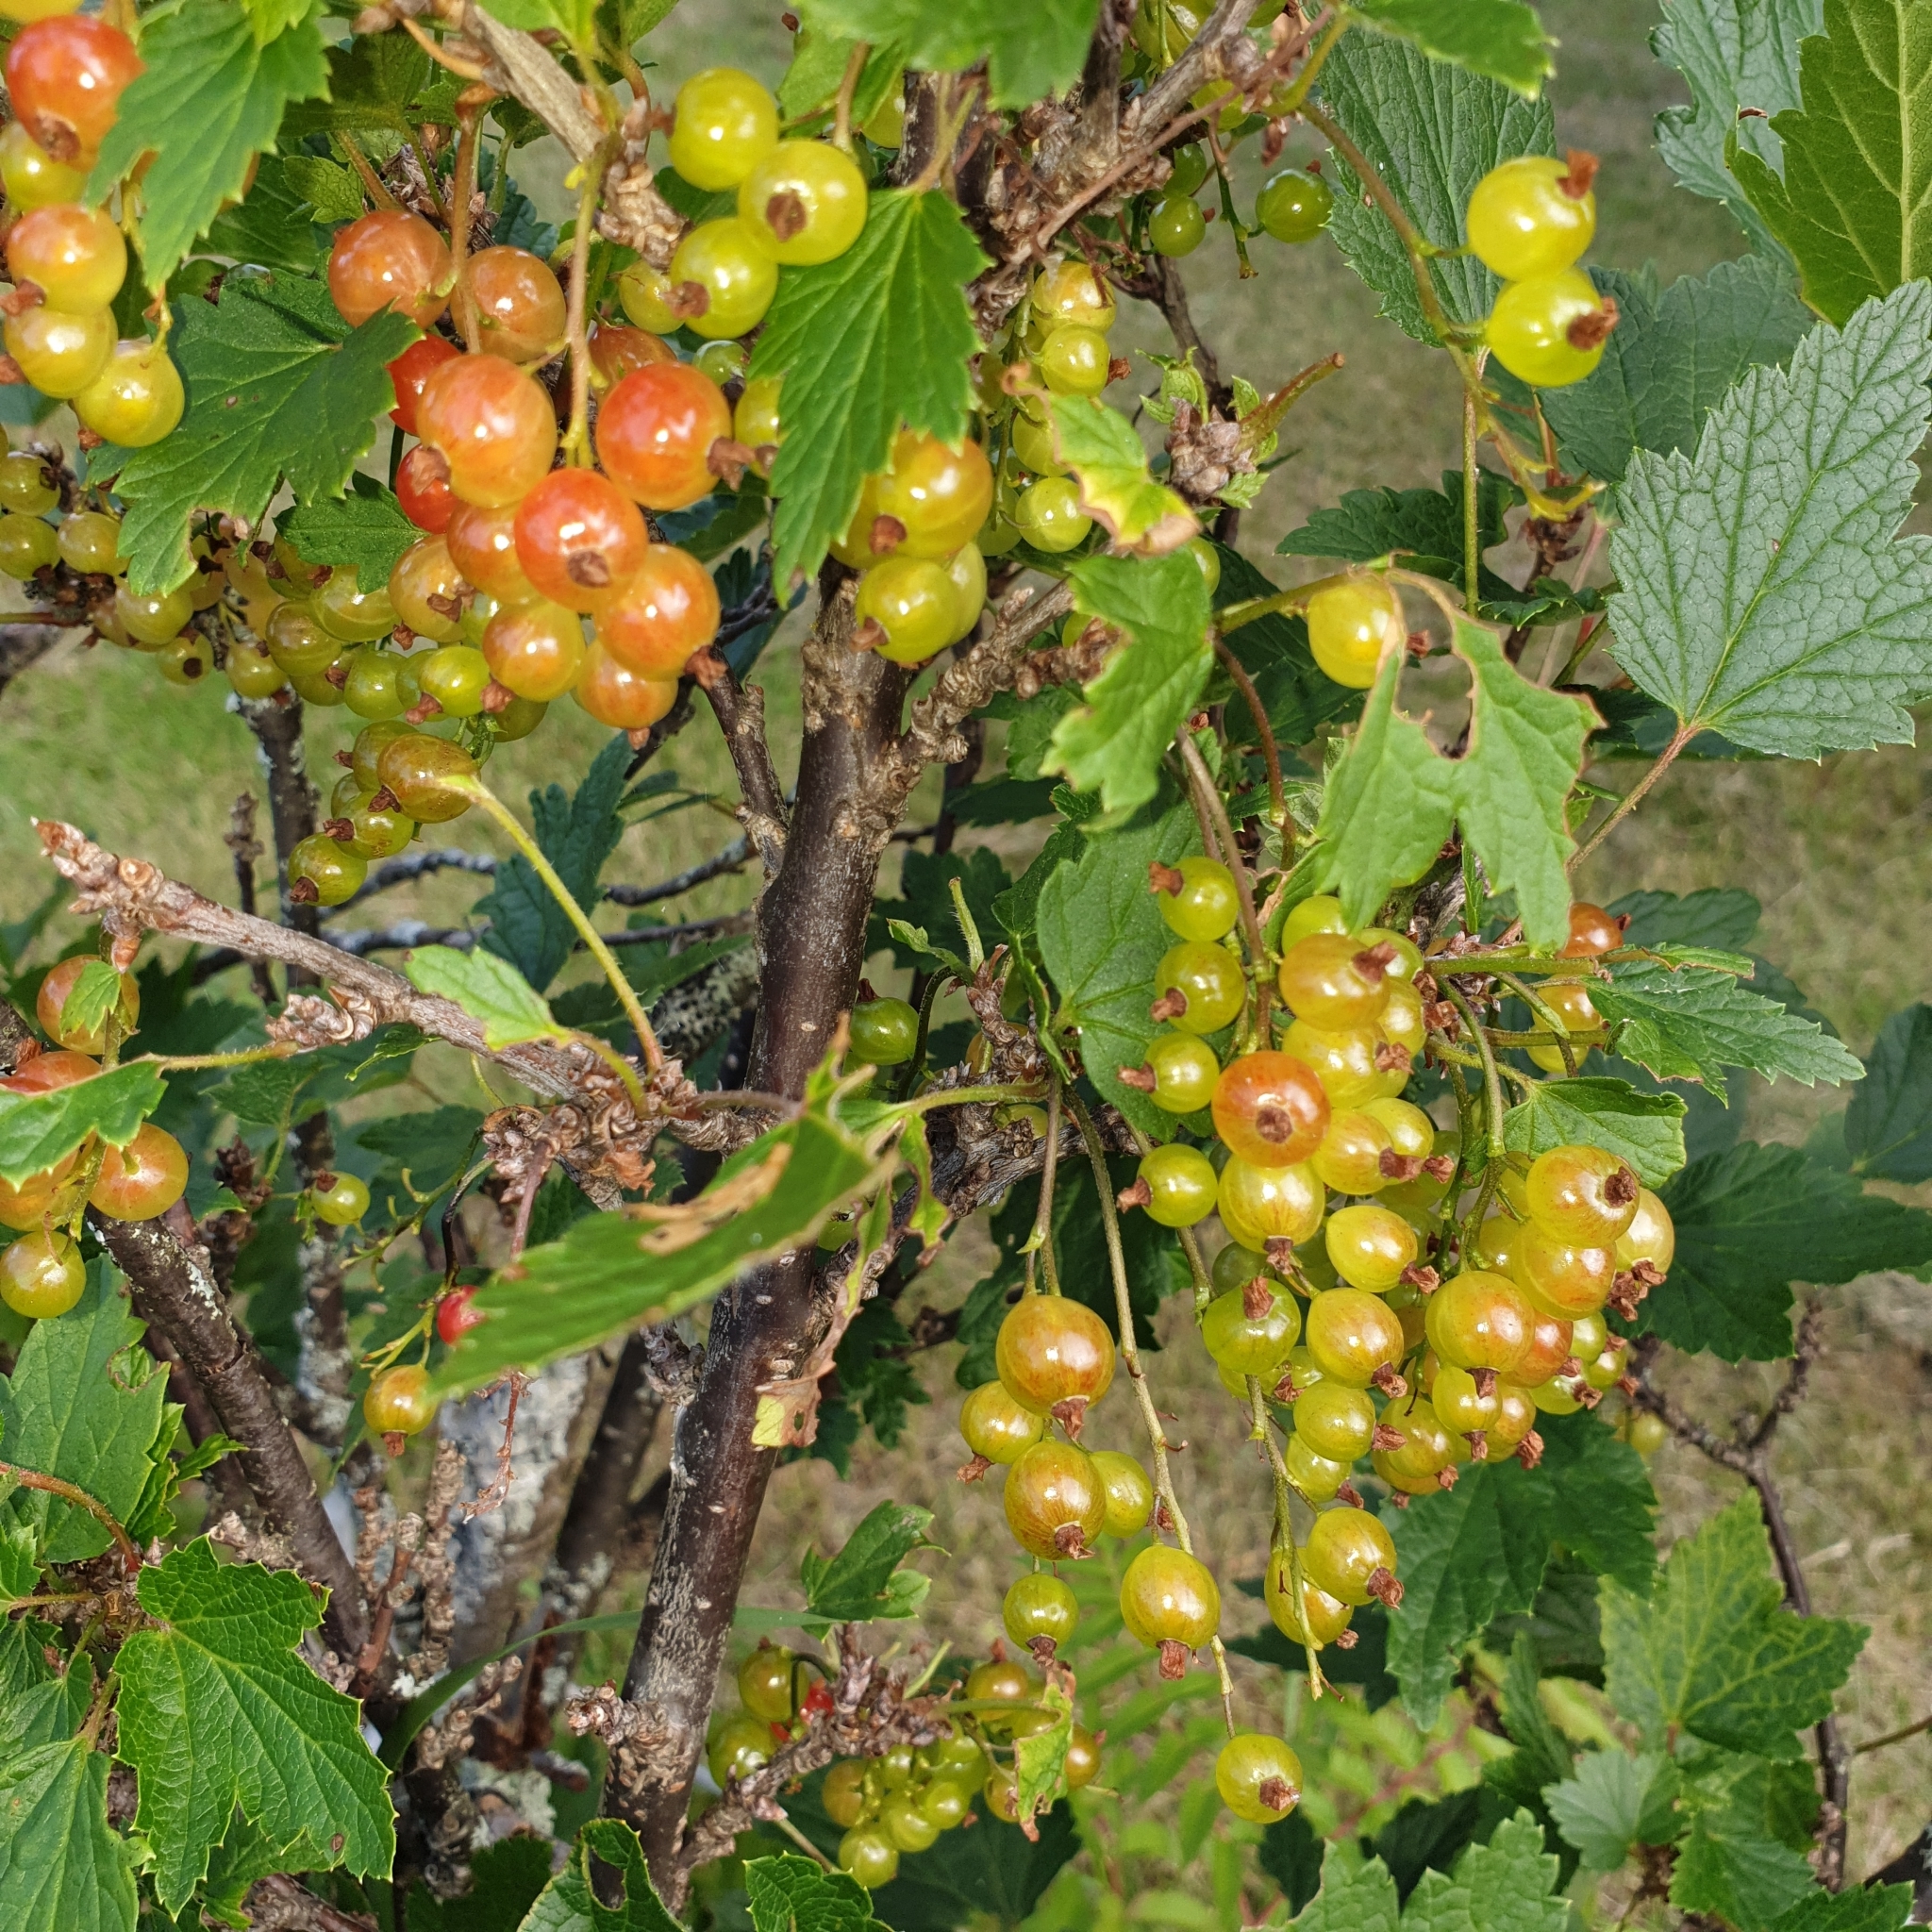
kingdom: Plantae
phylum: Tracheophyta
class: Magnoliopsida
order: Saxifragales
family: Grossulariaceae
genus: Ribes
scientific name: Ribes rubrum
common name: Red currant
